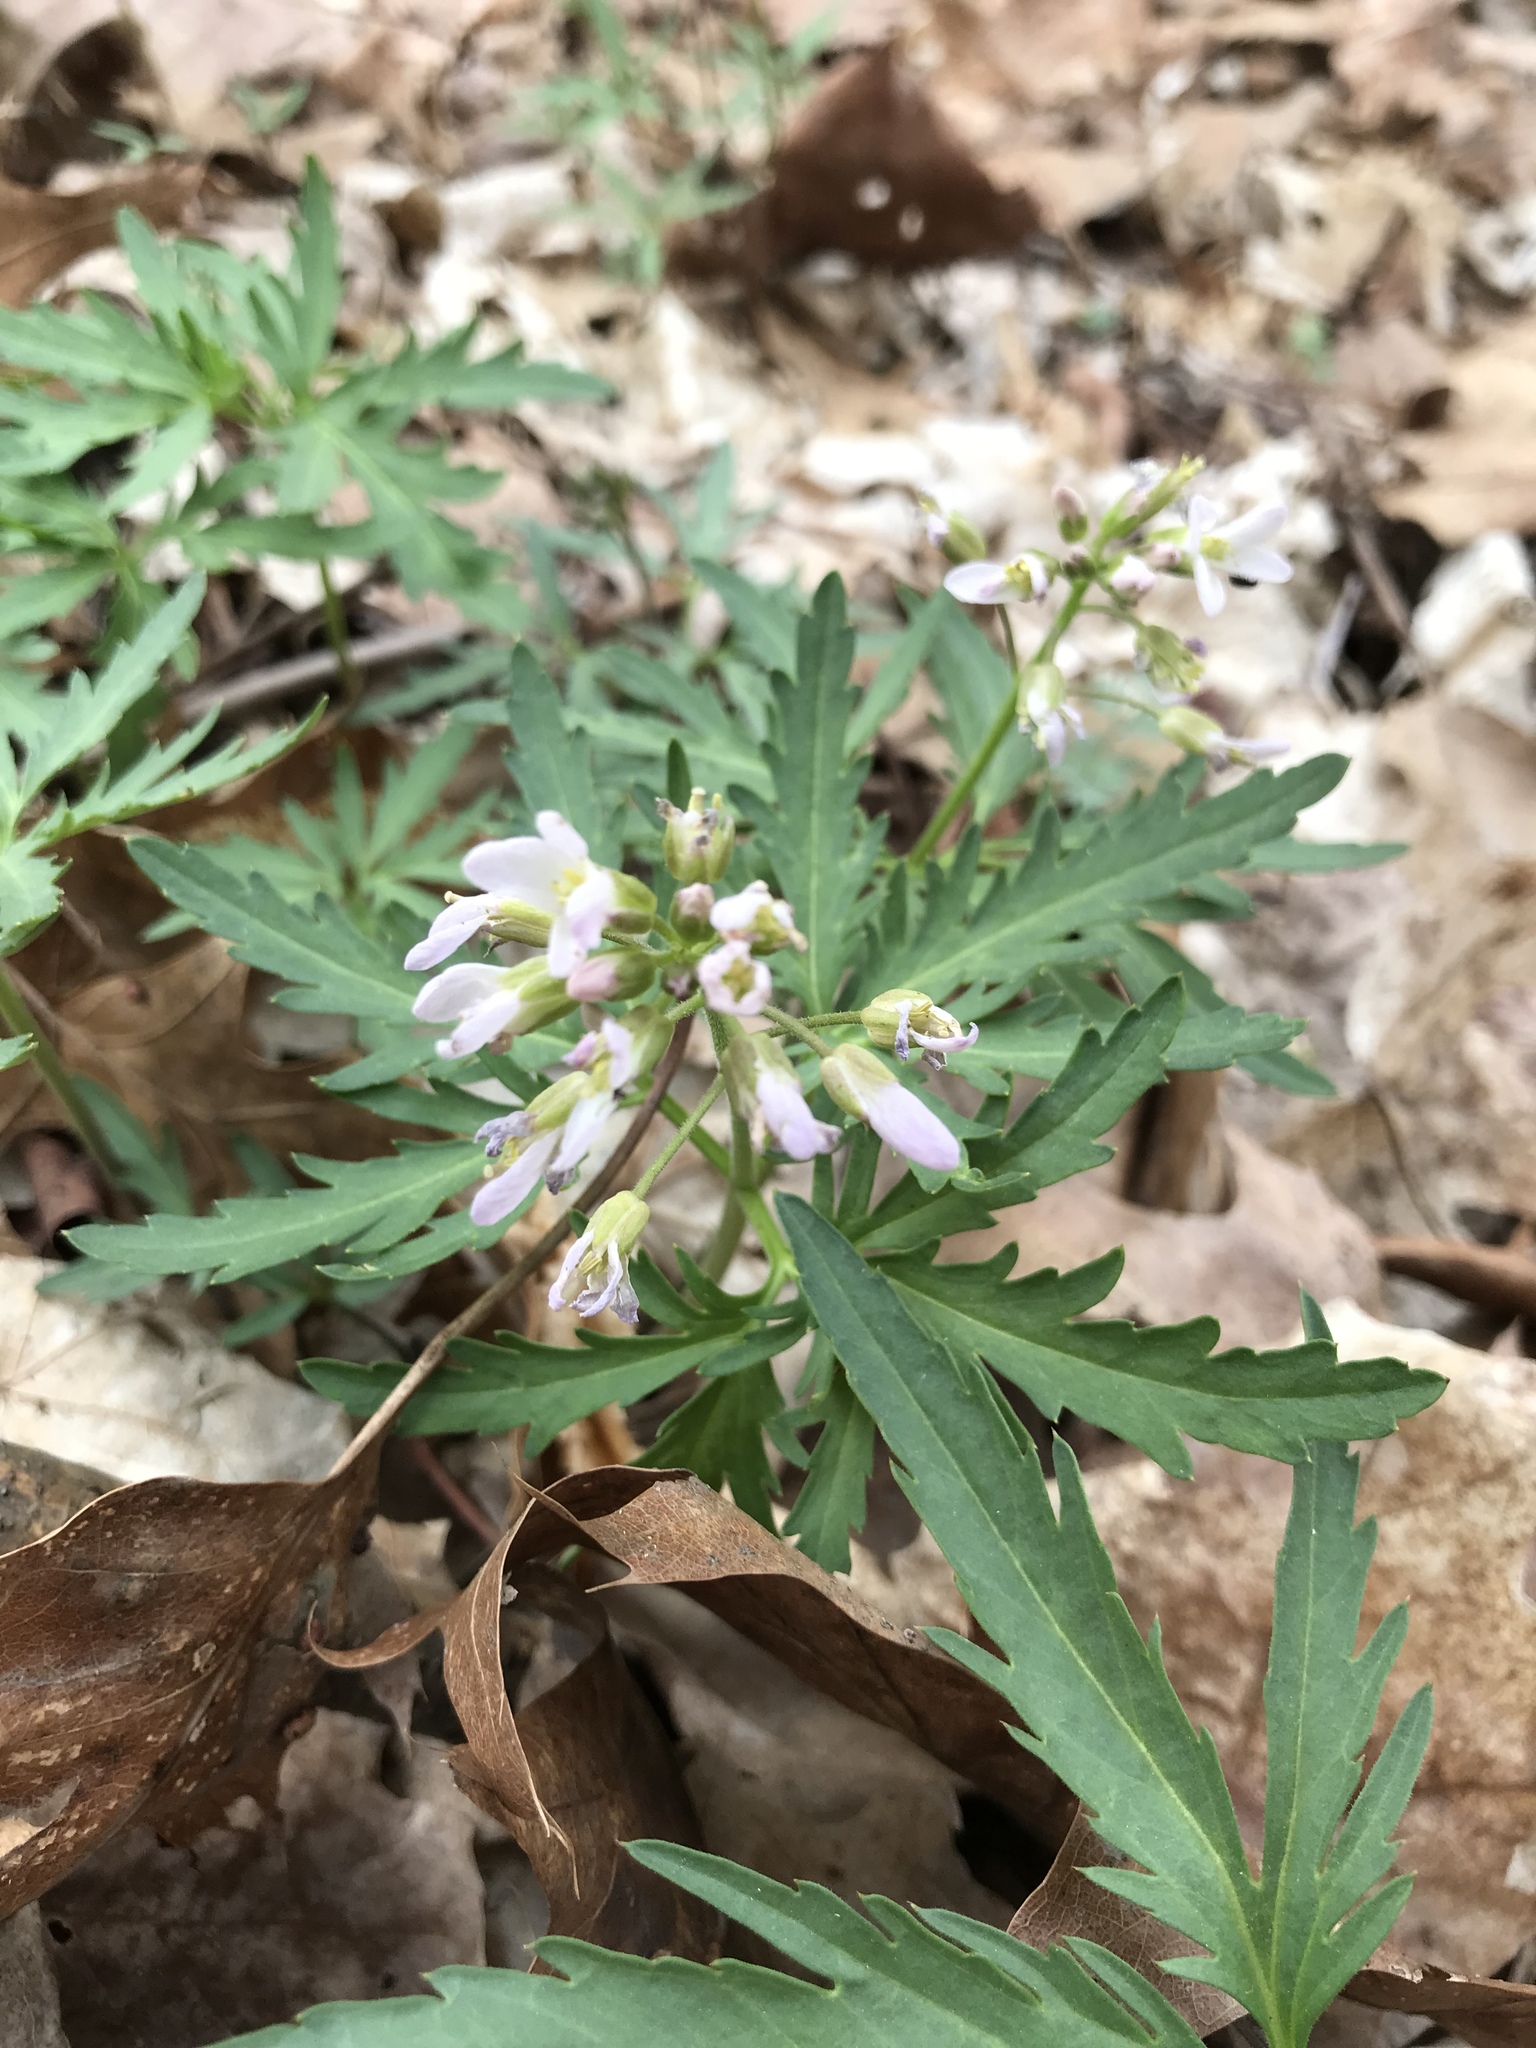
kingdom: Plantae
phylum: Tracheophyta
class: Magnoliopsida
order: Brassicales
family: Brassicaceae
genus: Cardamine
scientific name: Cardamine concatenata
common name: Cut-leaf toothcup
